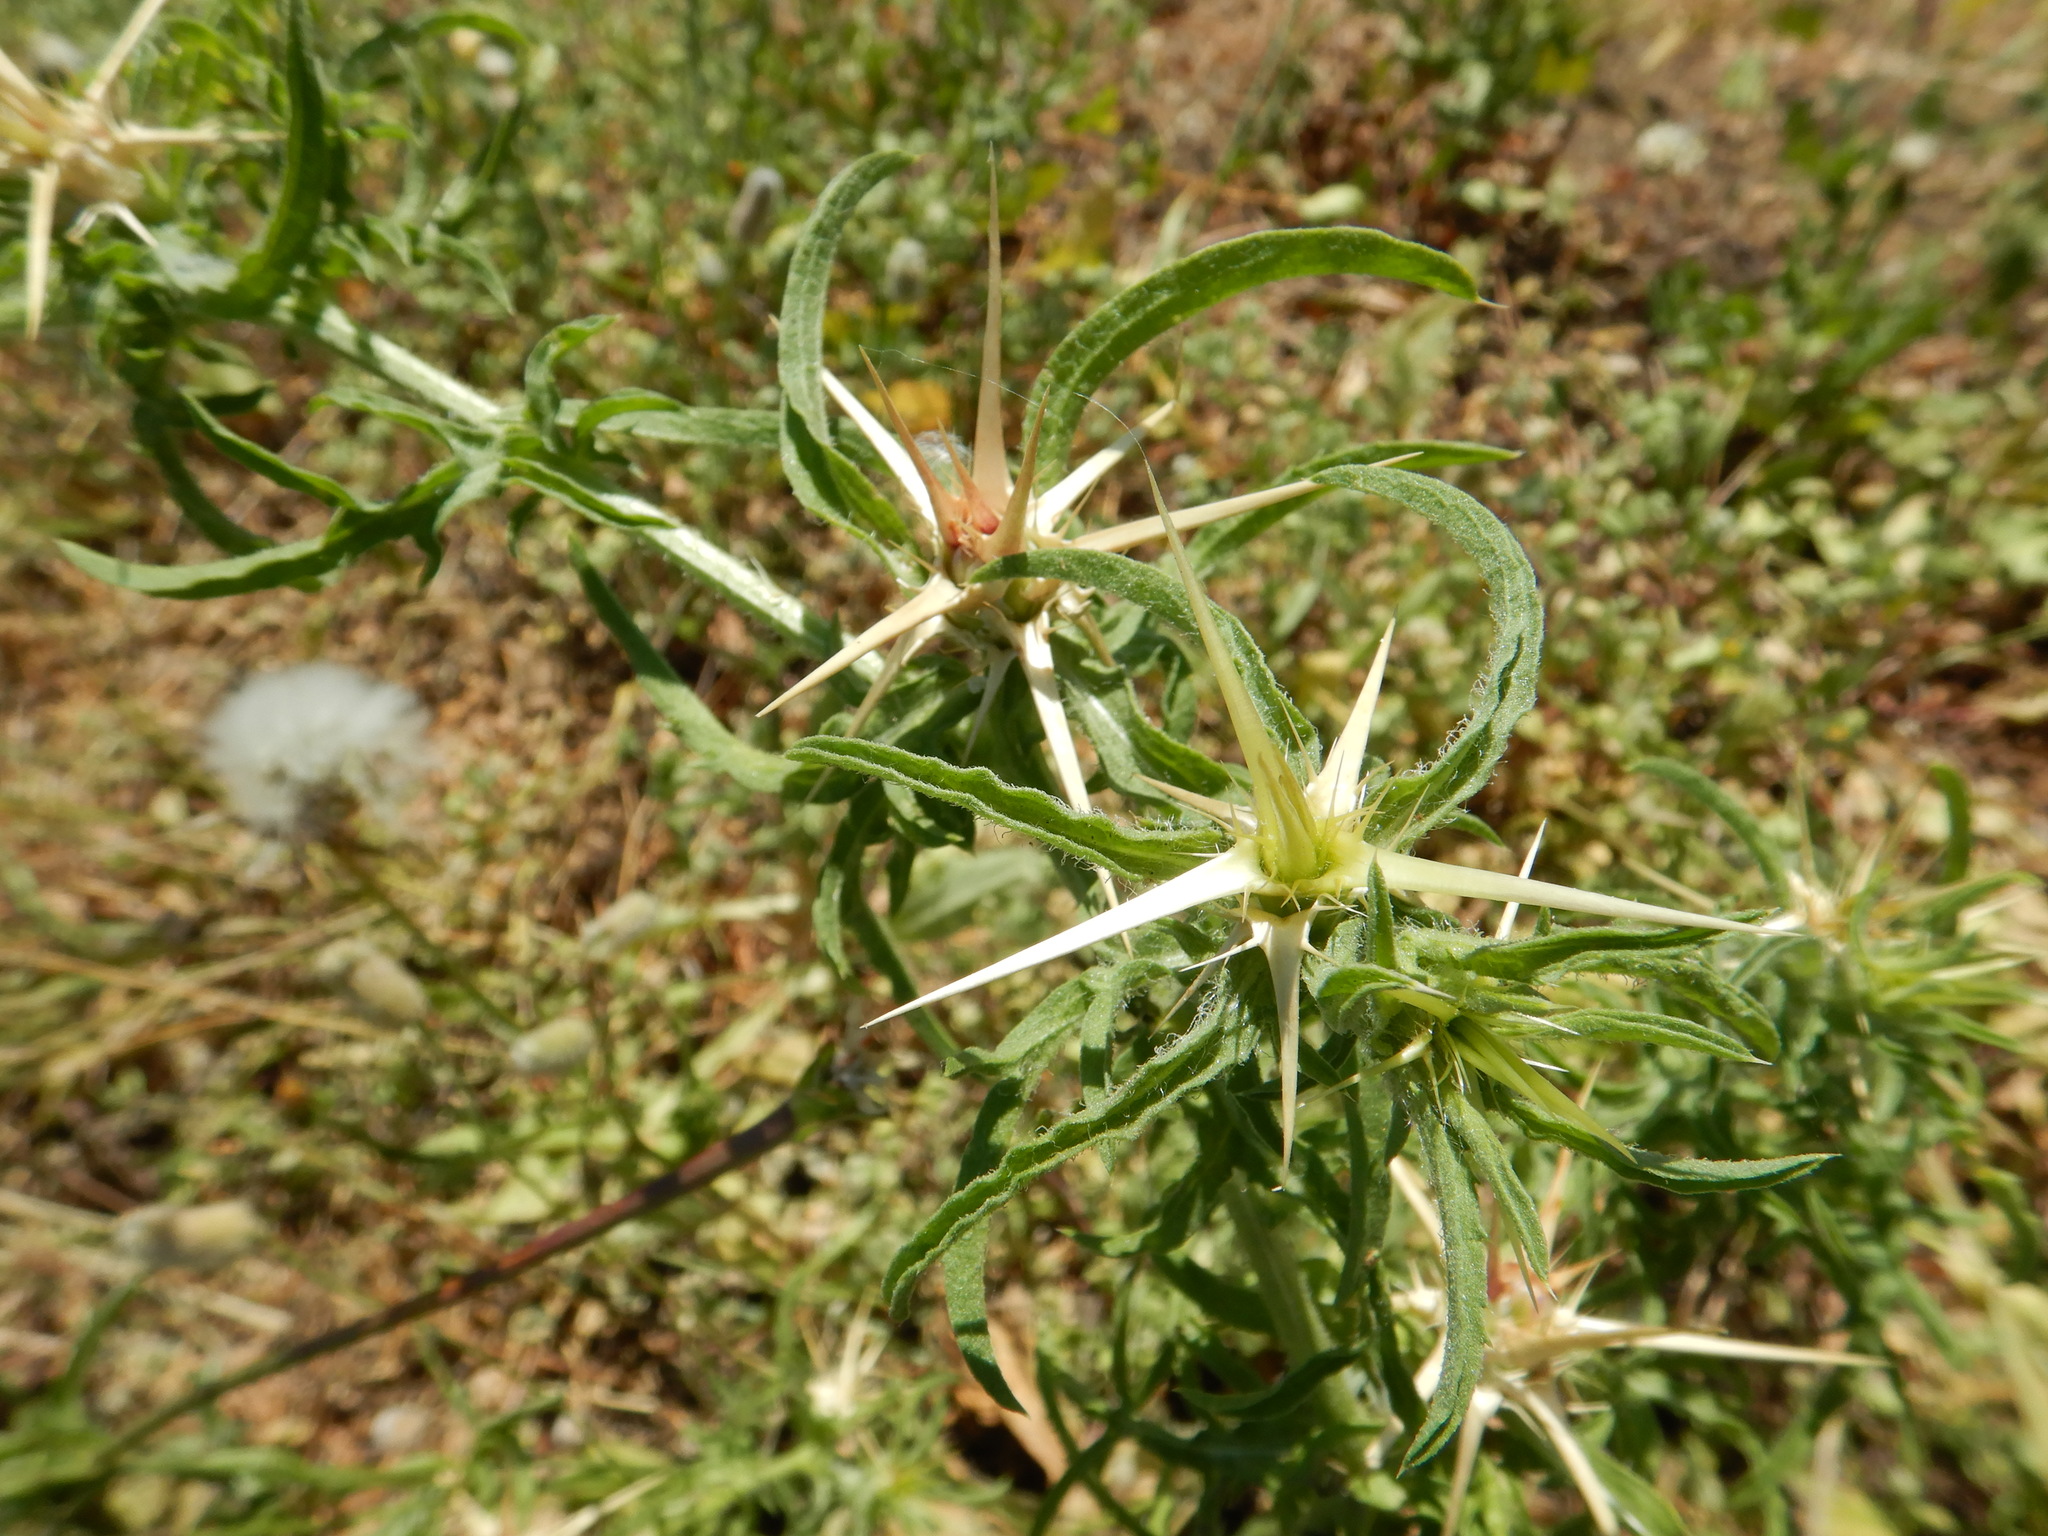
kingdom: Plantae
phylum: Tracheophyta
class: Magnoliopsida
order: Asterales
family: Asteraceae
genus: Centaurea
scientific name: Centaurea calcitrapa
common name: Red star-thistle
